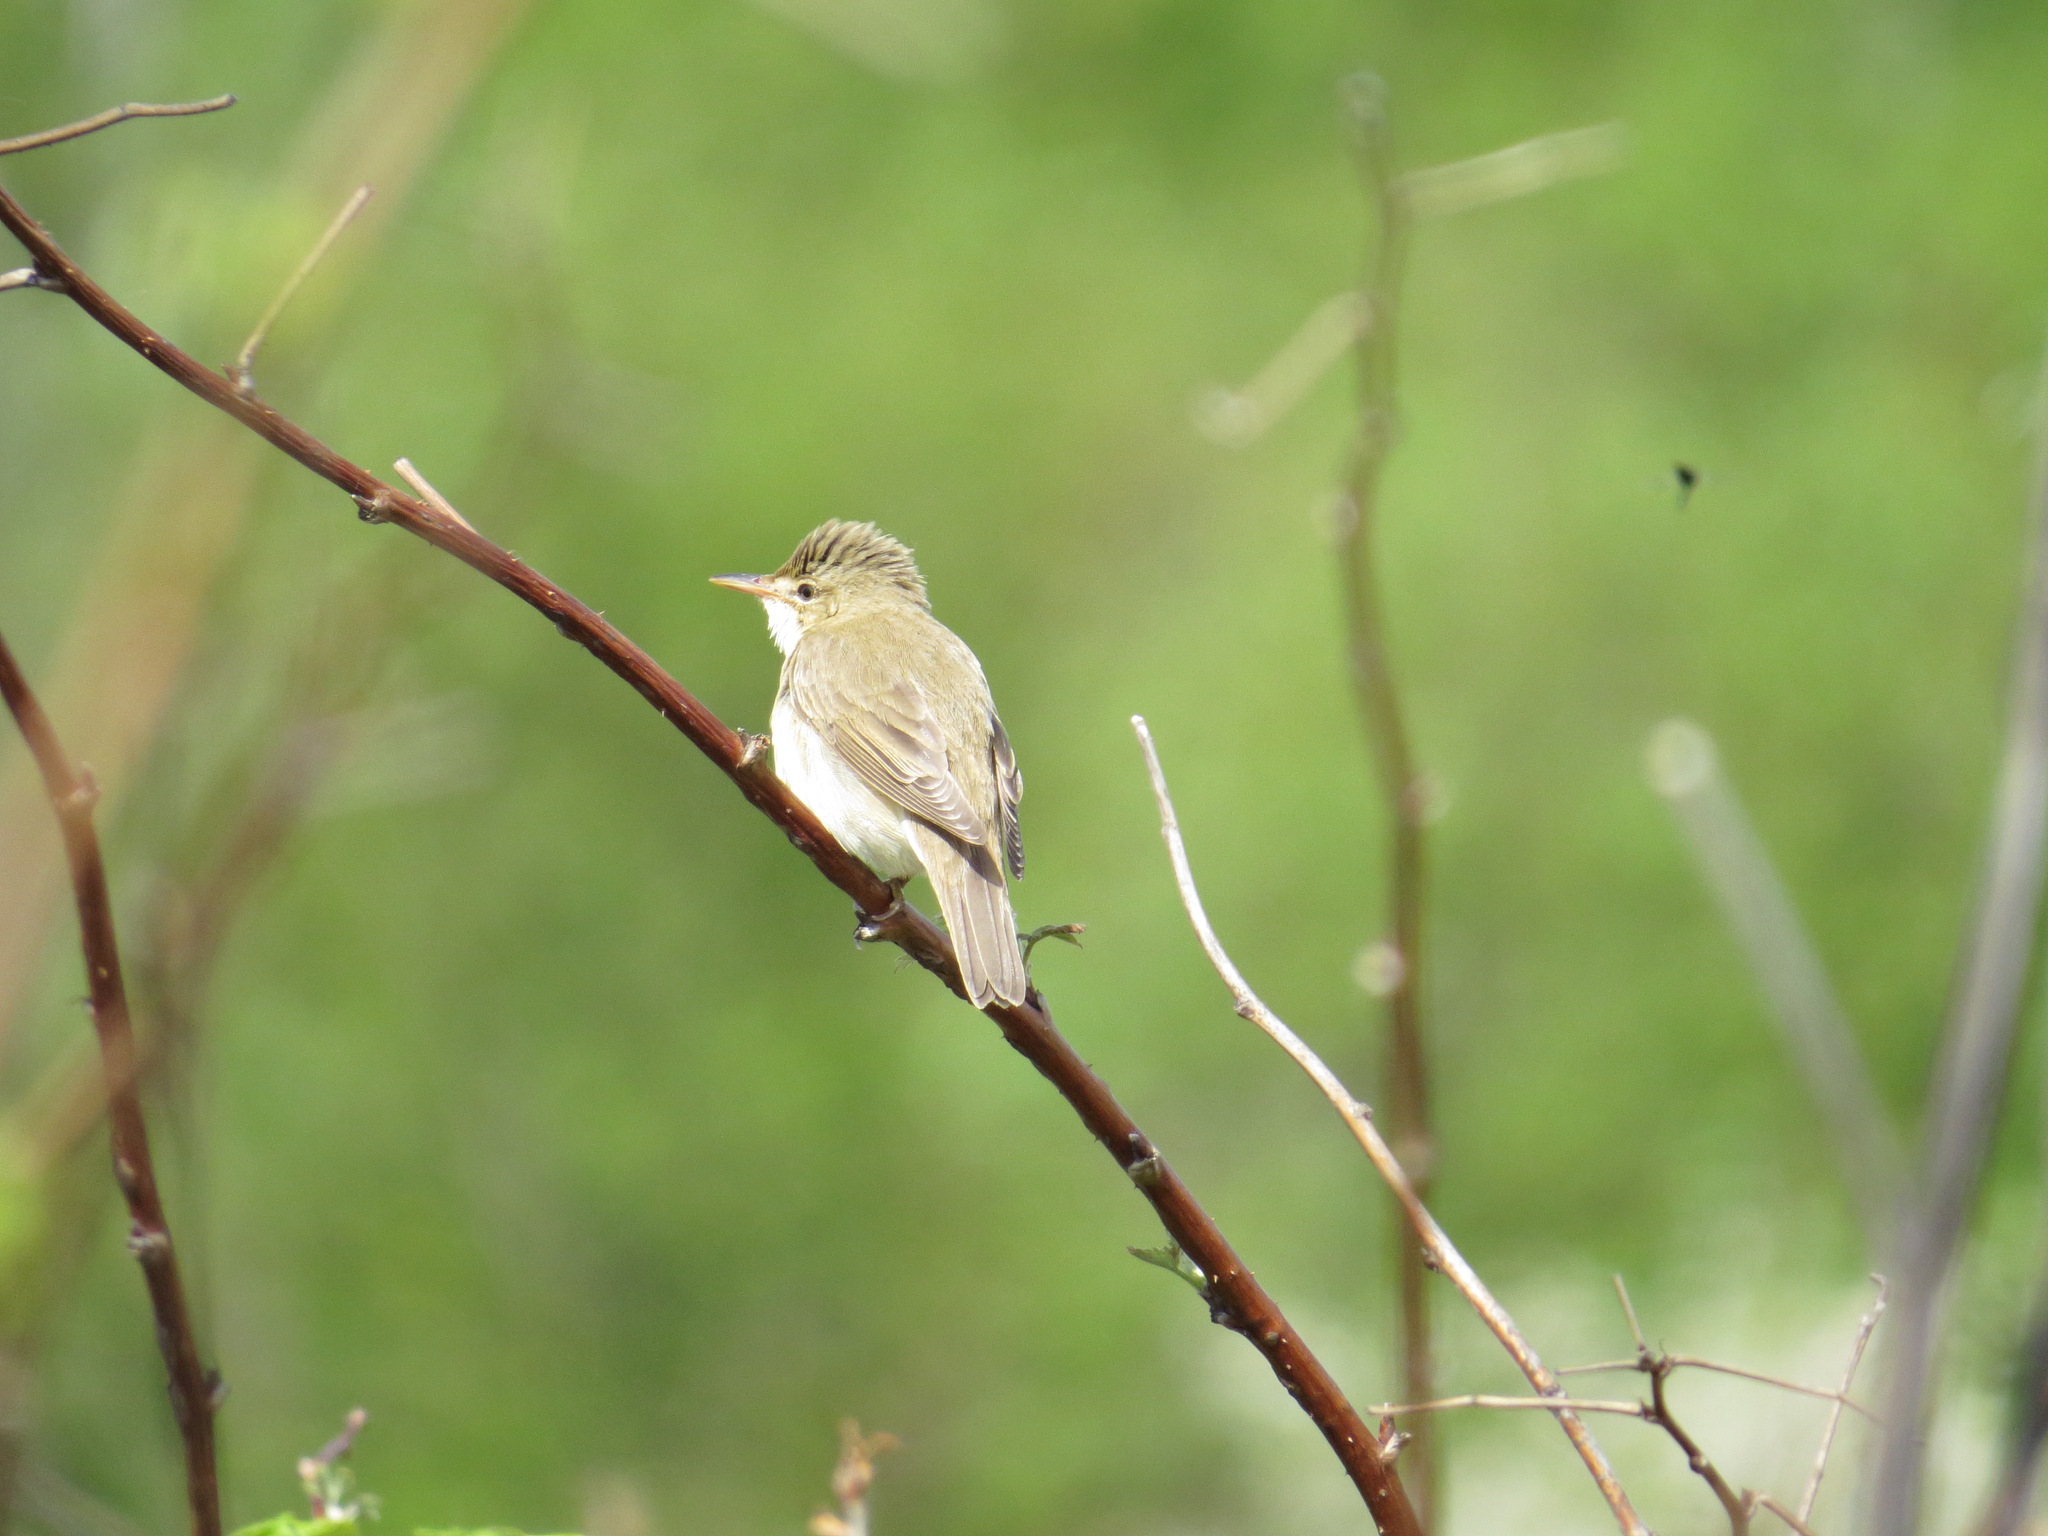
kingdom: Animalia
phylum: Chordata
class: Aves
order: Passeriformes
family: Acrocephalidae
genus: Acrocephalus
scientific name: Acrocephalus palustris
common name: Marsh warbler
